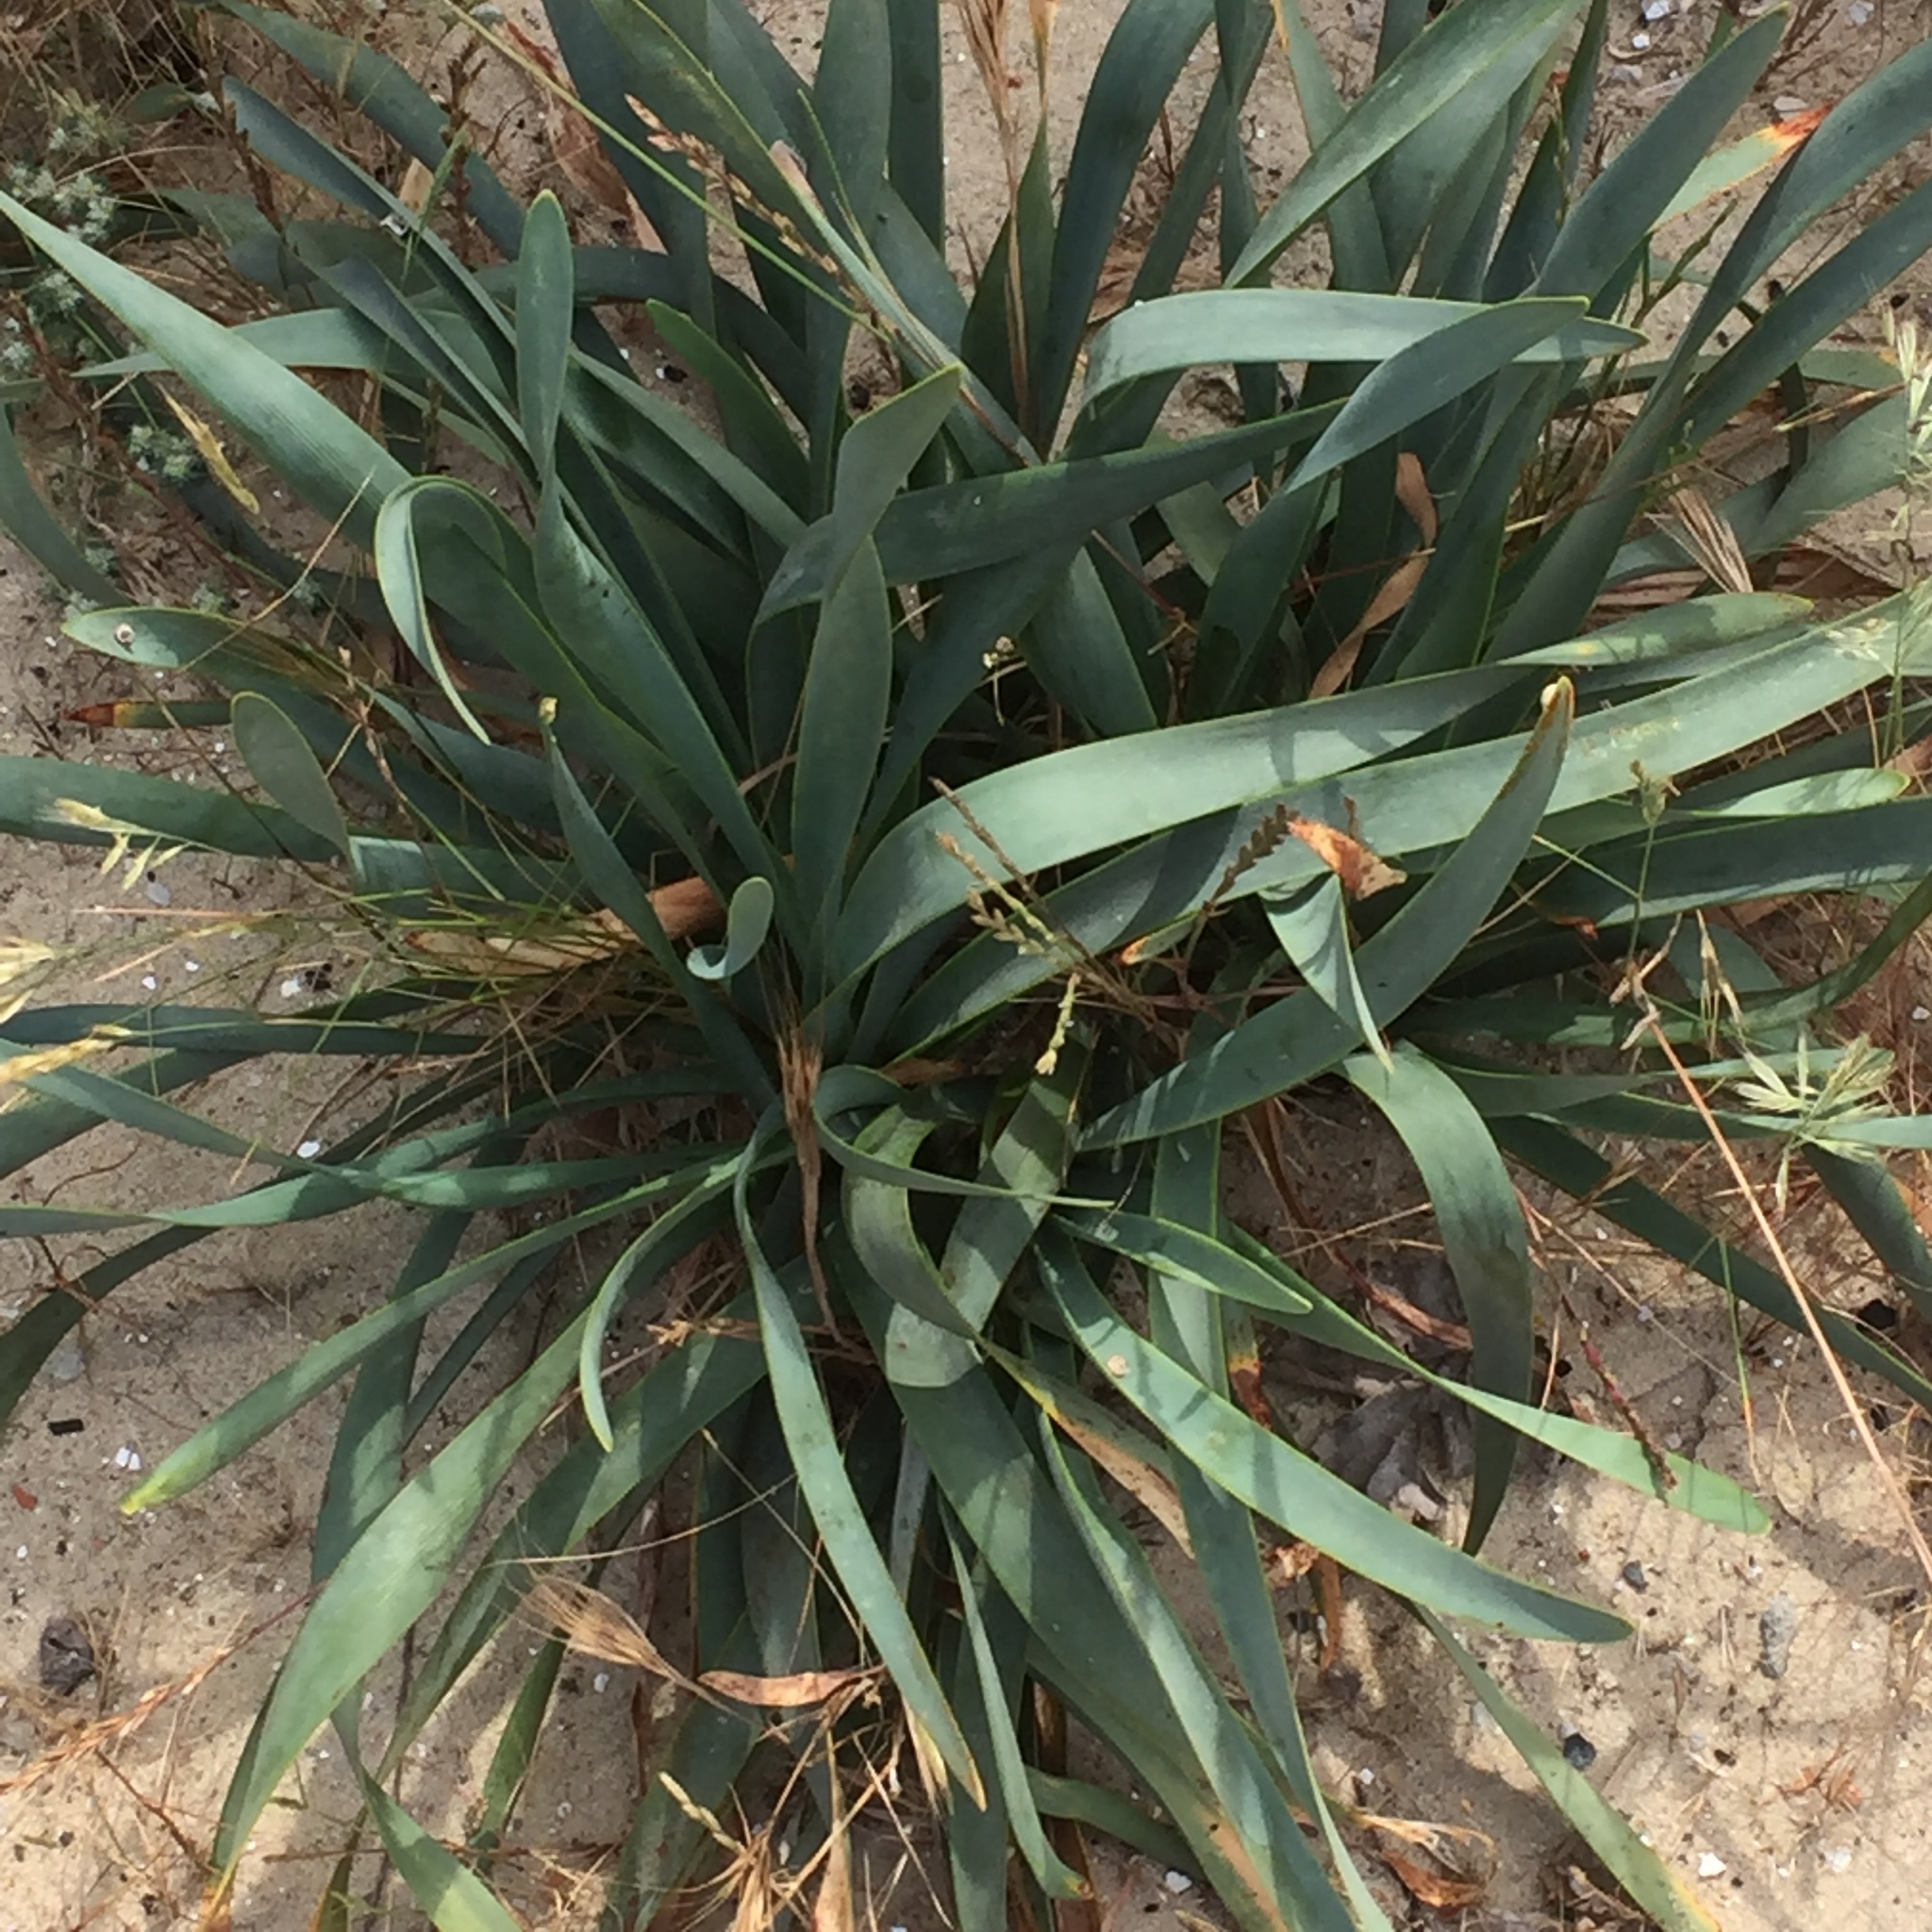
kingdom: Plantae
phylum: Tracheophyta
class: Liliopsida
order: Asparagales
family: Amaryllidaceae
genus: Pancratium
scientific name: Pancratium maritimum
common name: Sea-daffodil
